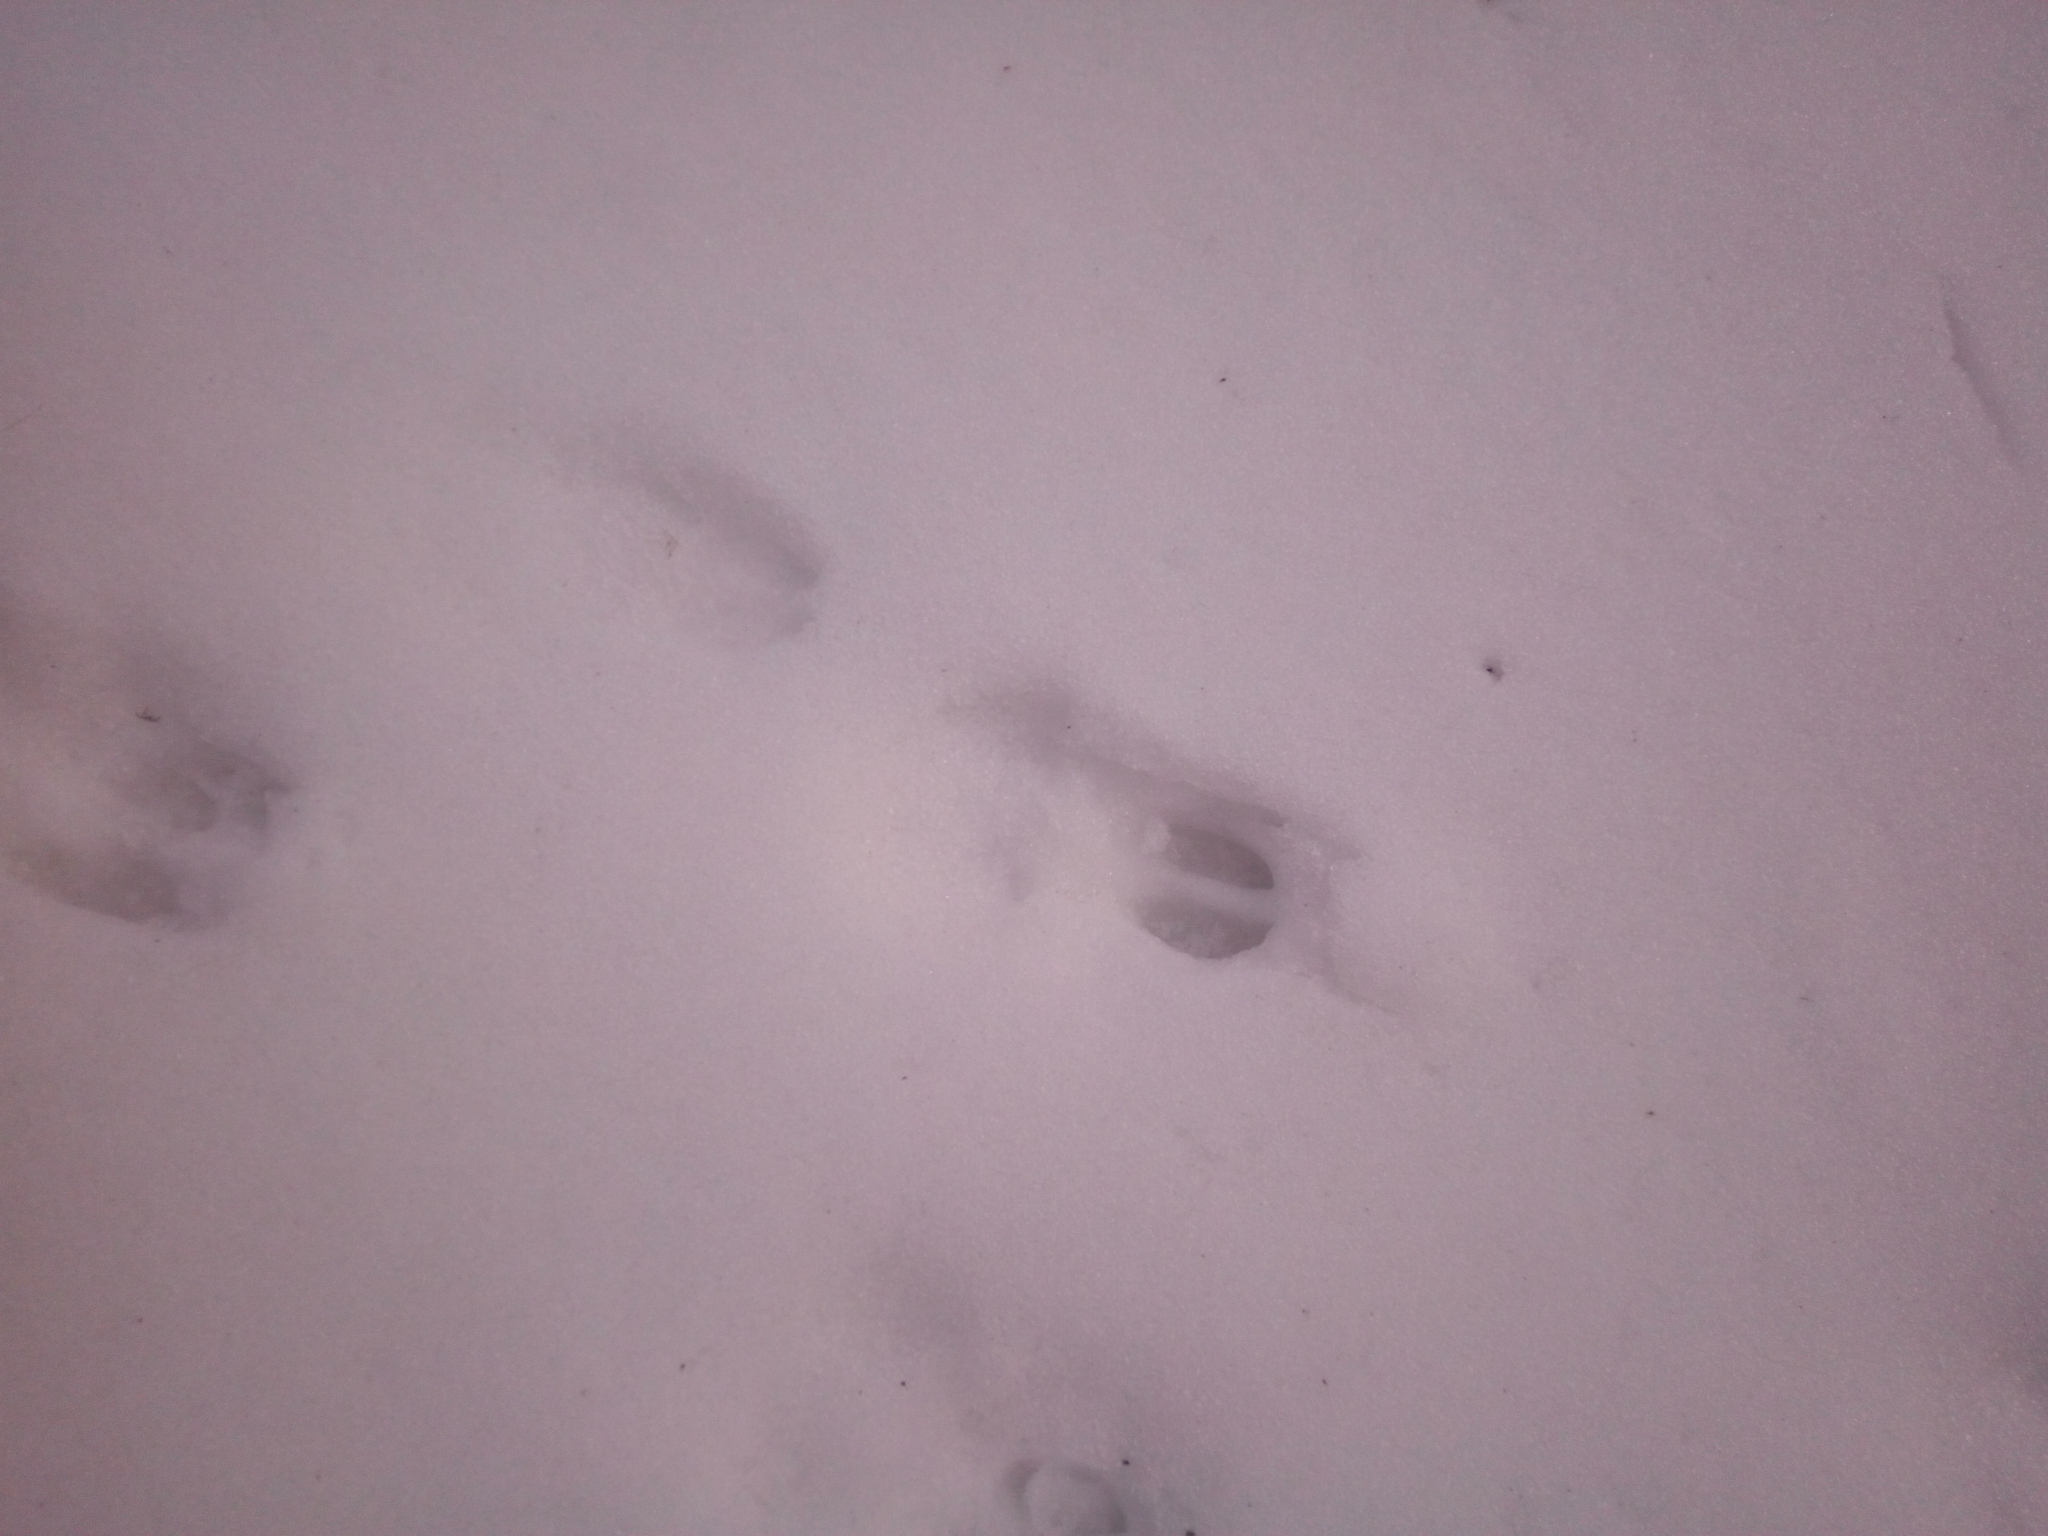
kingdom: Animalia
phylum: Chordata
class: Mammalia
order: Artiodactyla
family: Cervidae
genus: Capreolus
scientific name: Capreolus capreolus
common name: Western roe deer
